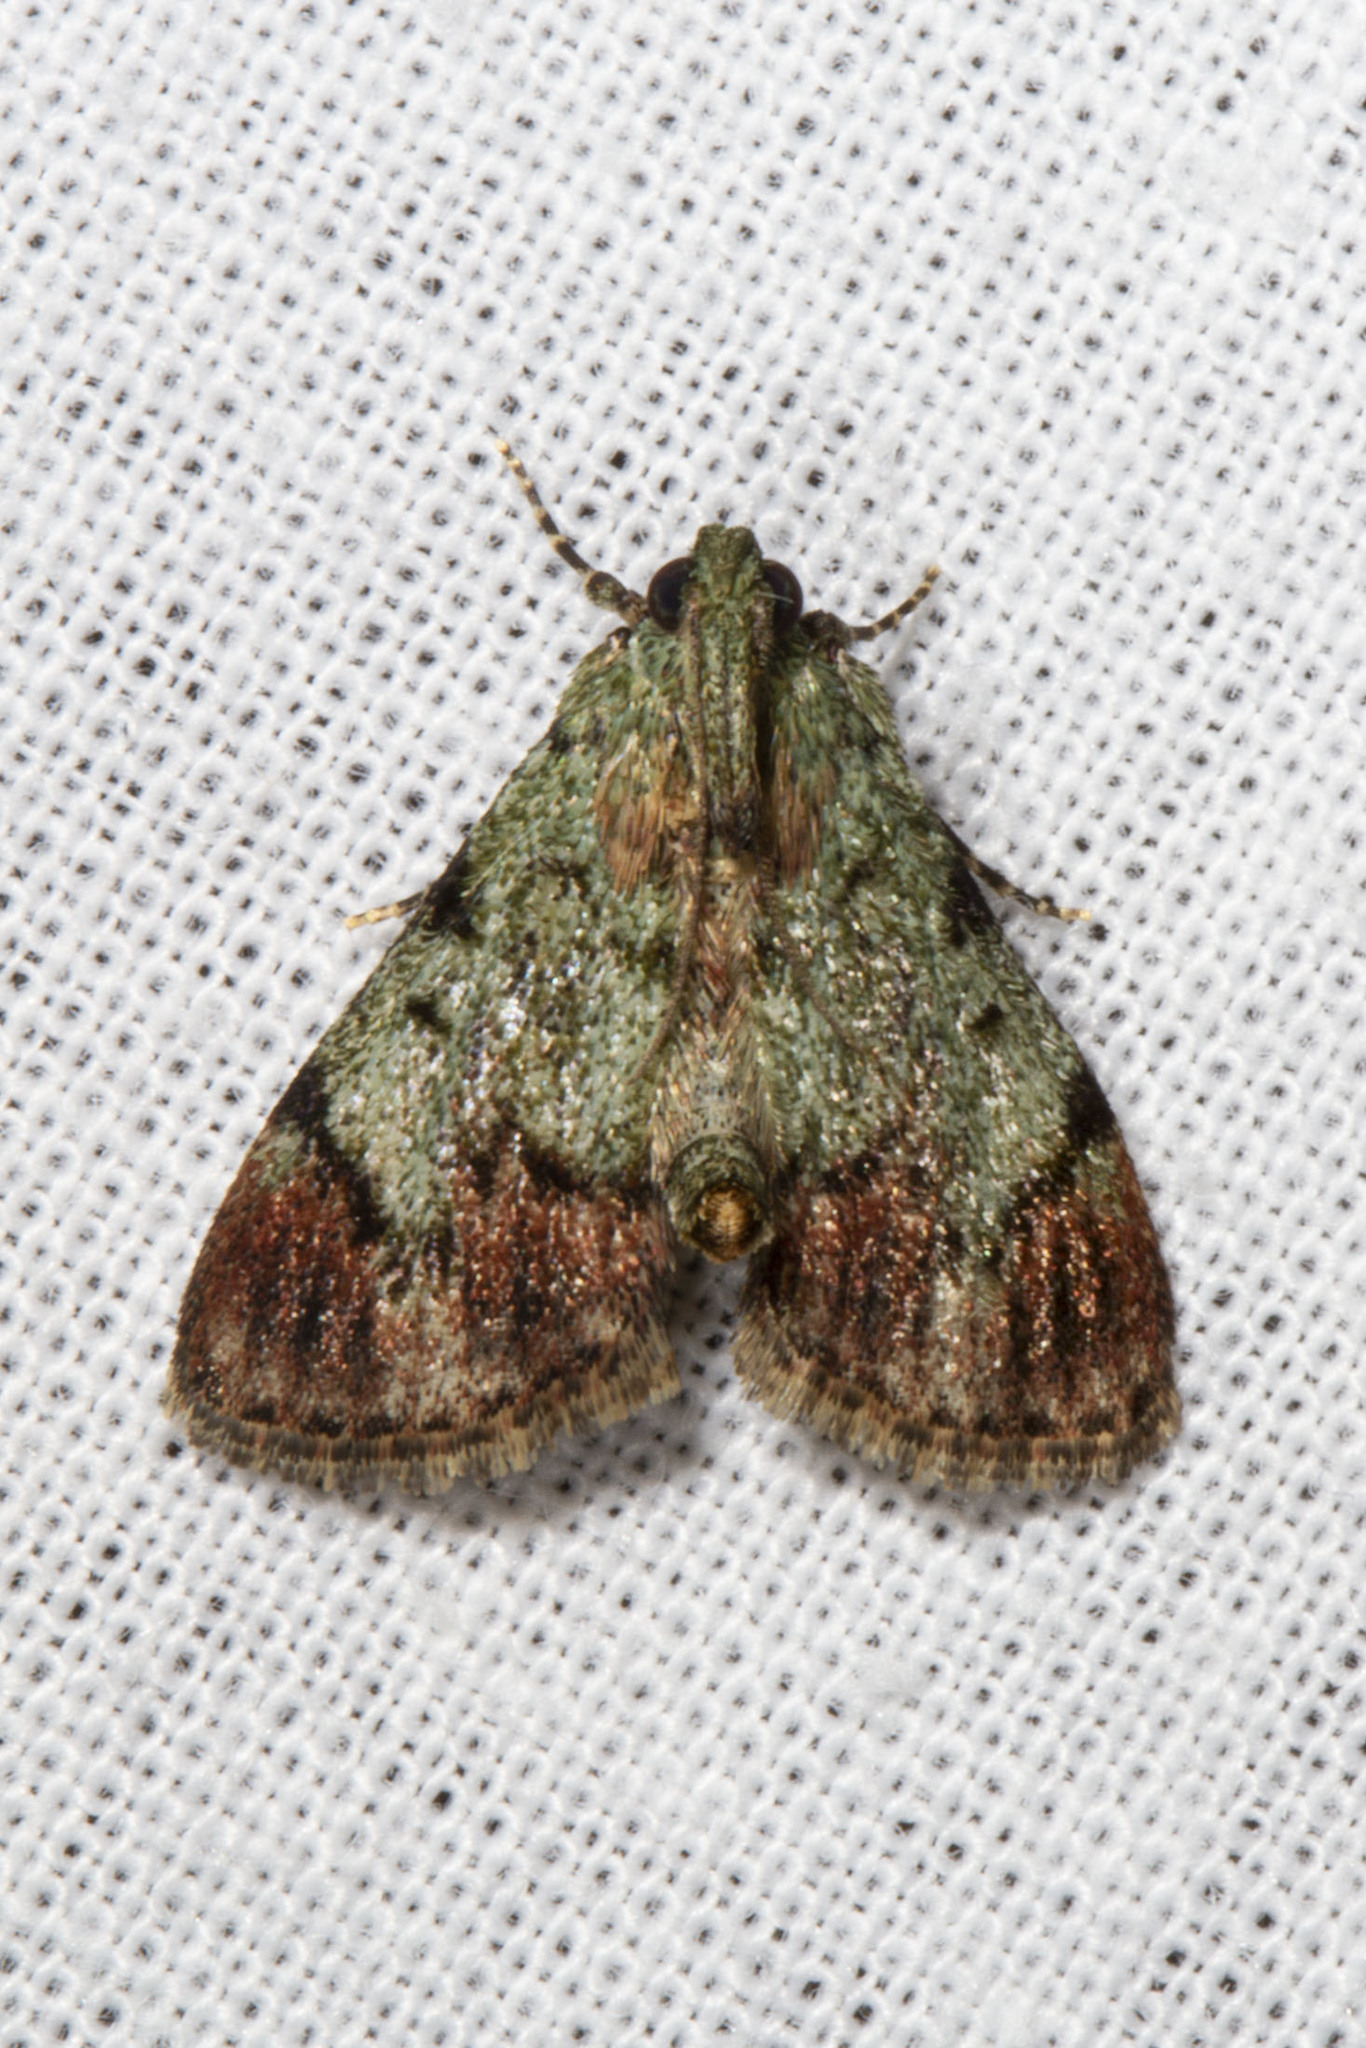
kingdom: Animalia
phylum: Arthropoda
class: Insecta
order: Lepidoptera
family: Pyralidae
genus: Epipaschia
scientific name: Epipaschia superatalis
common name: Dimorphic macalla moth
